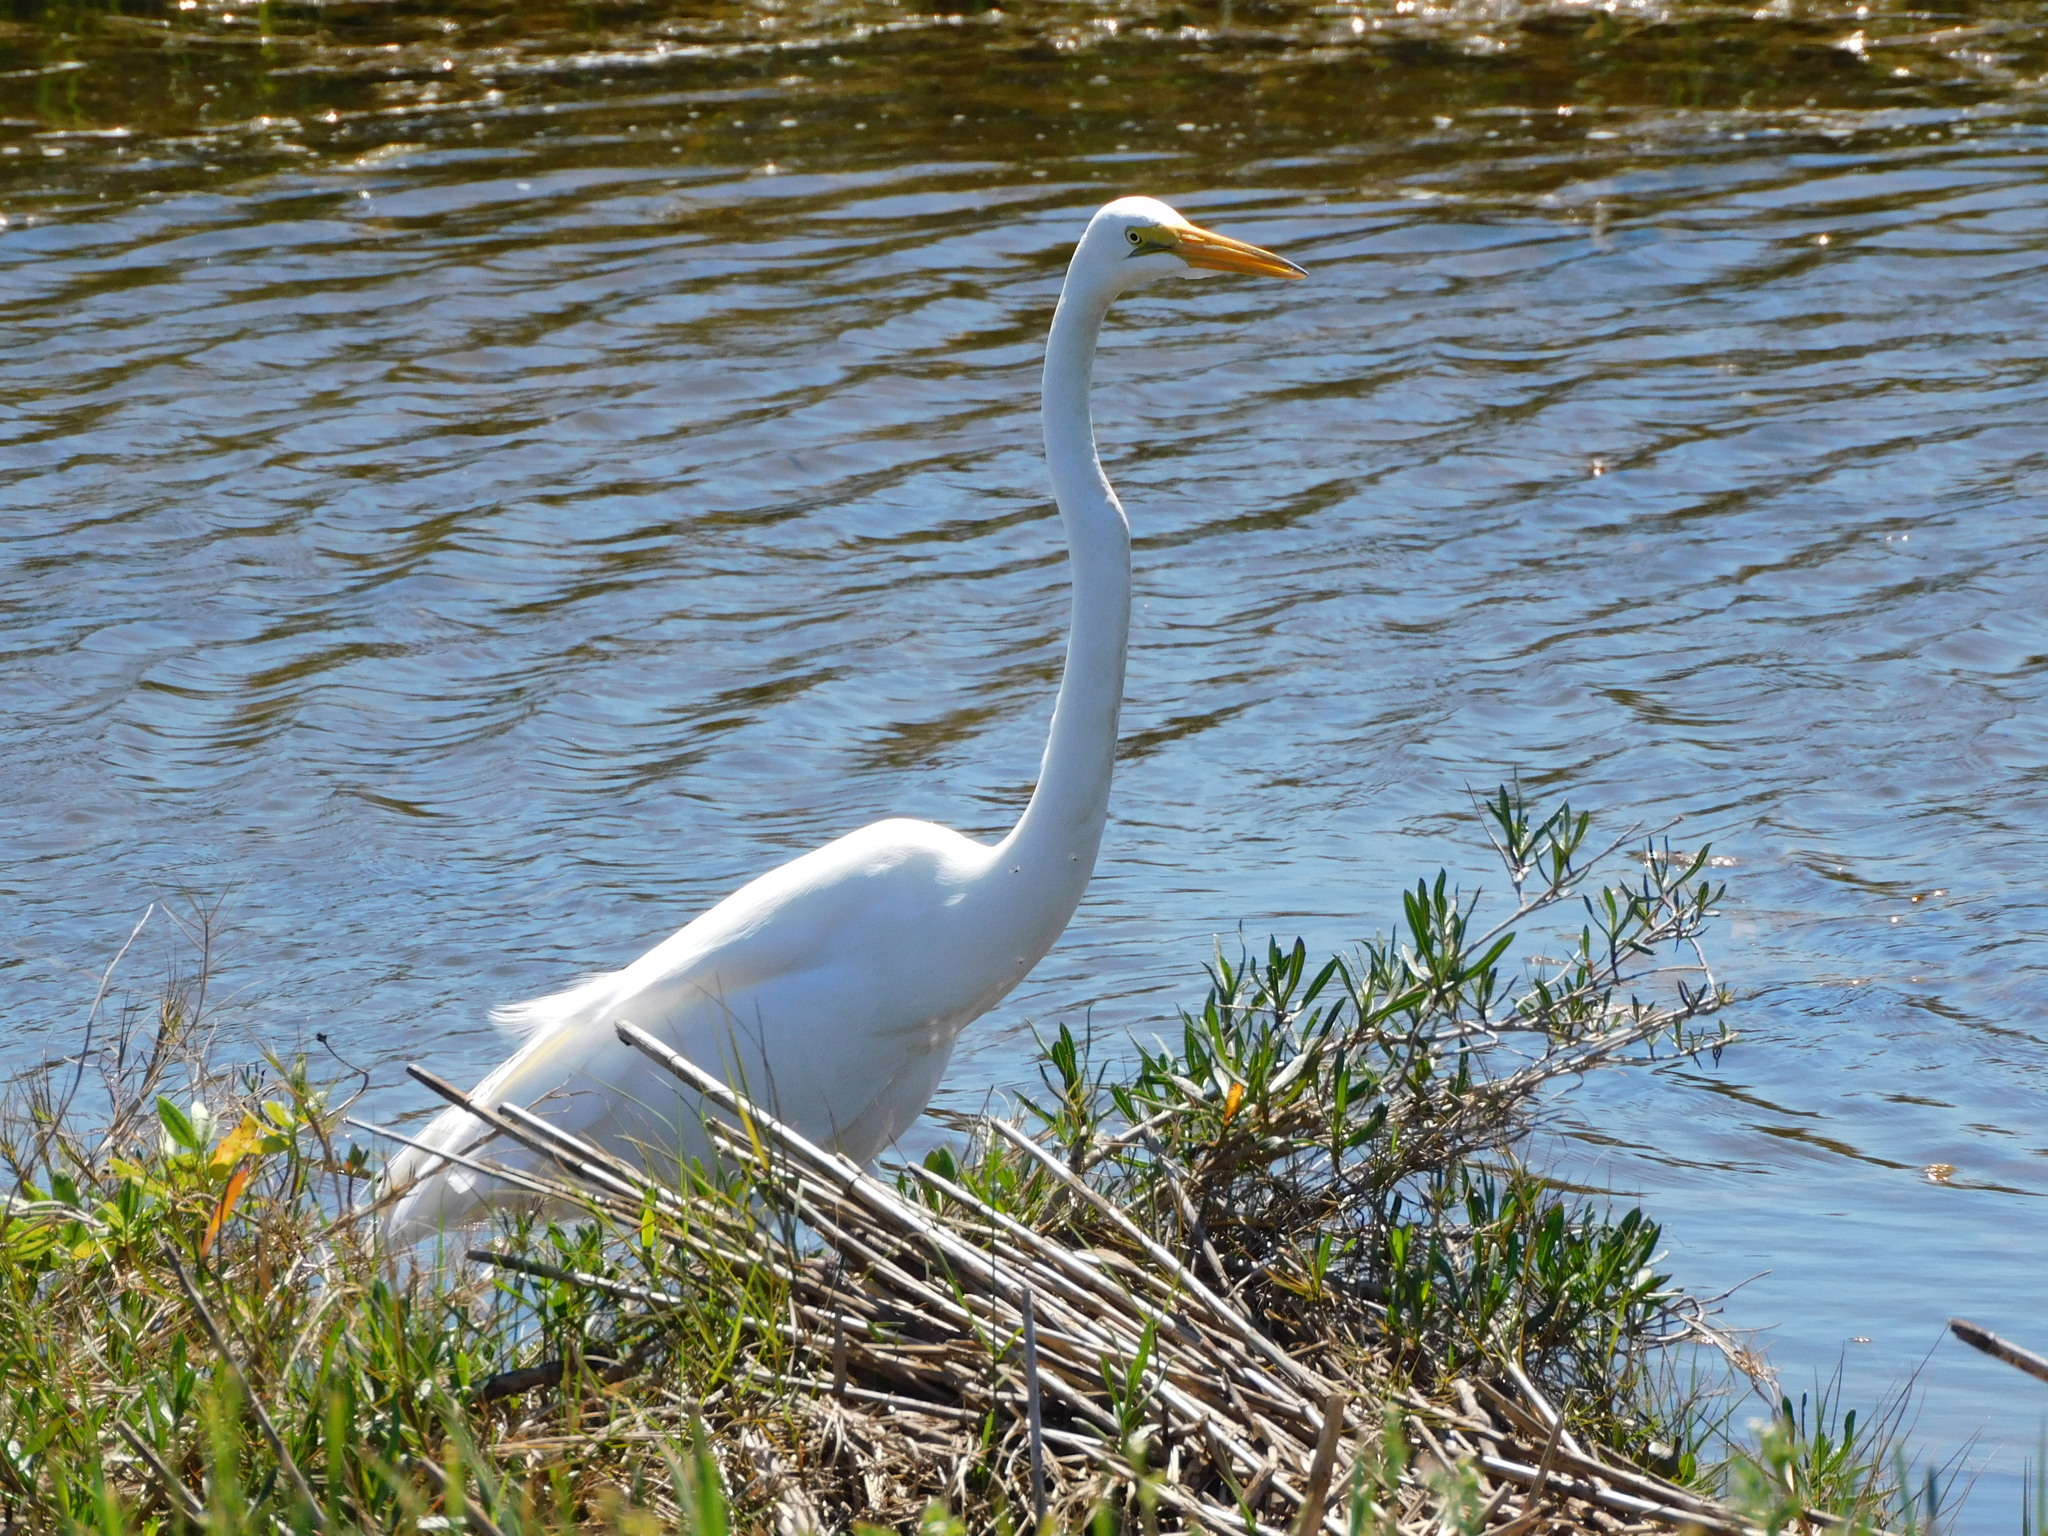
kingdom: Animalia
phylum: Chordata
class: Aves
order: Pelecaniformes
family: Ardeidae
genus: Ardea
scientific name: Ardea alba
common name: Great egret
